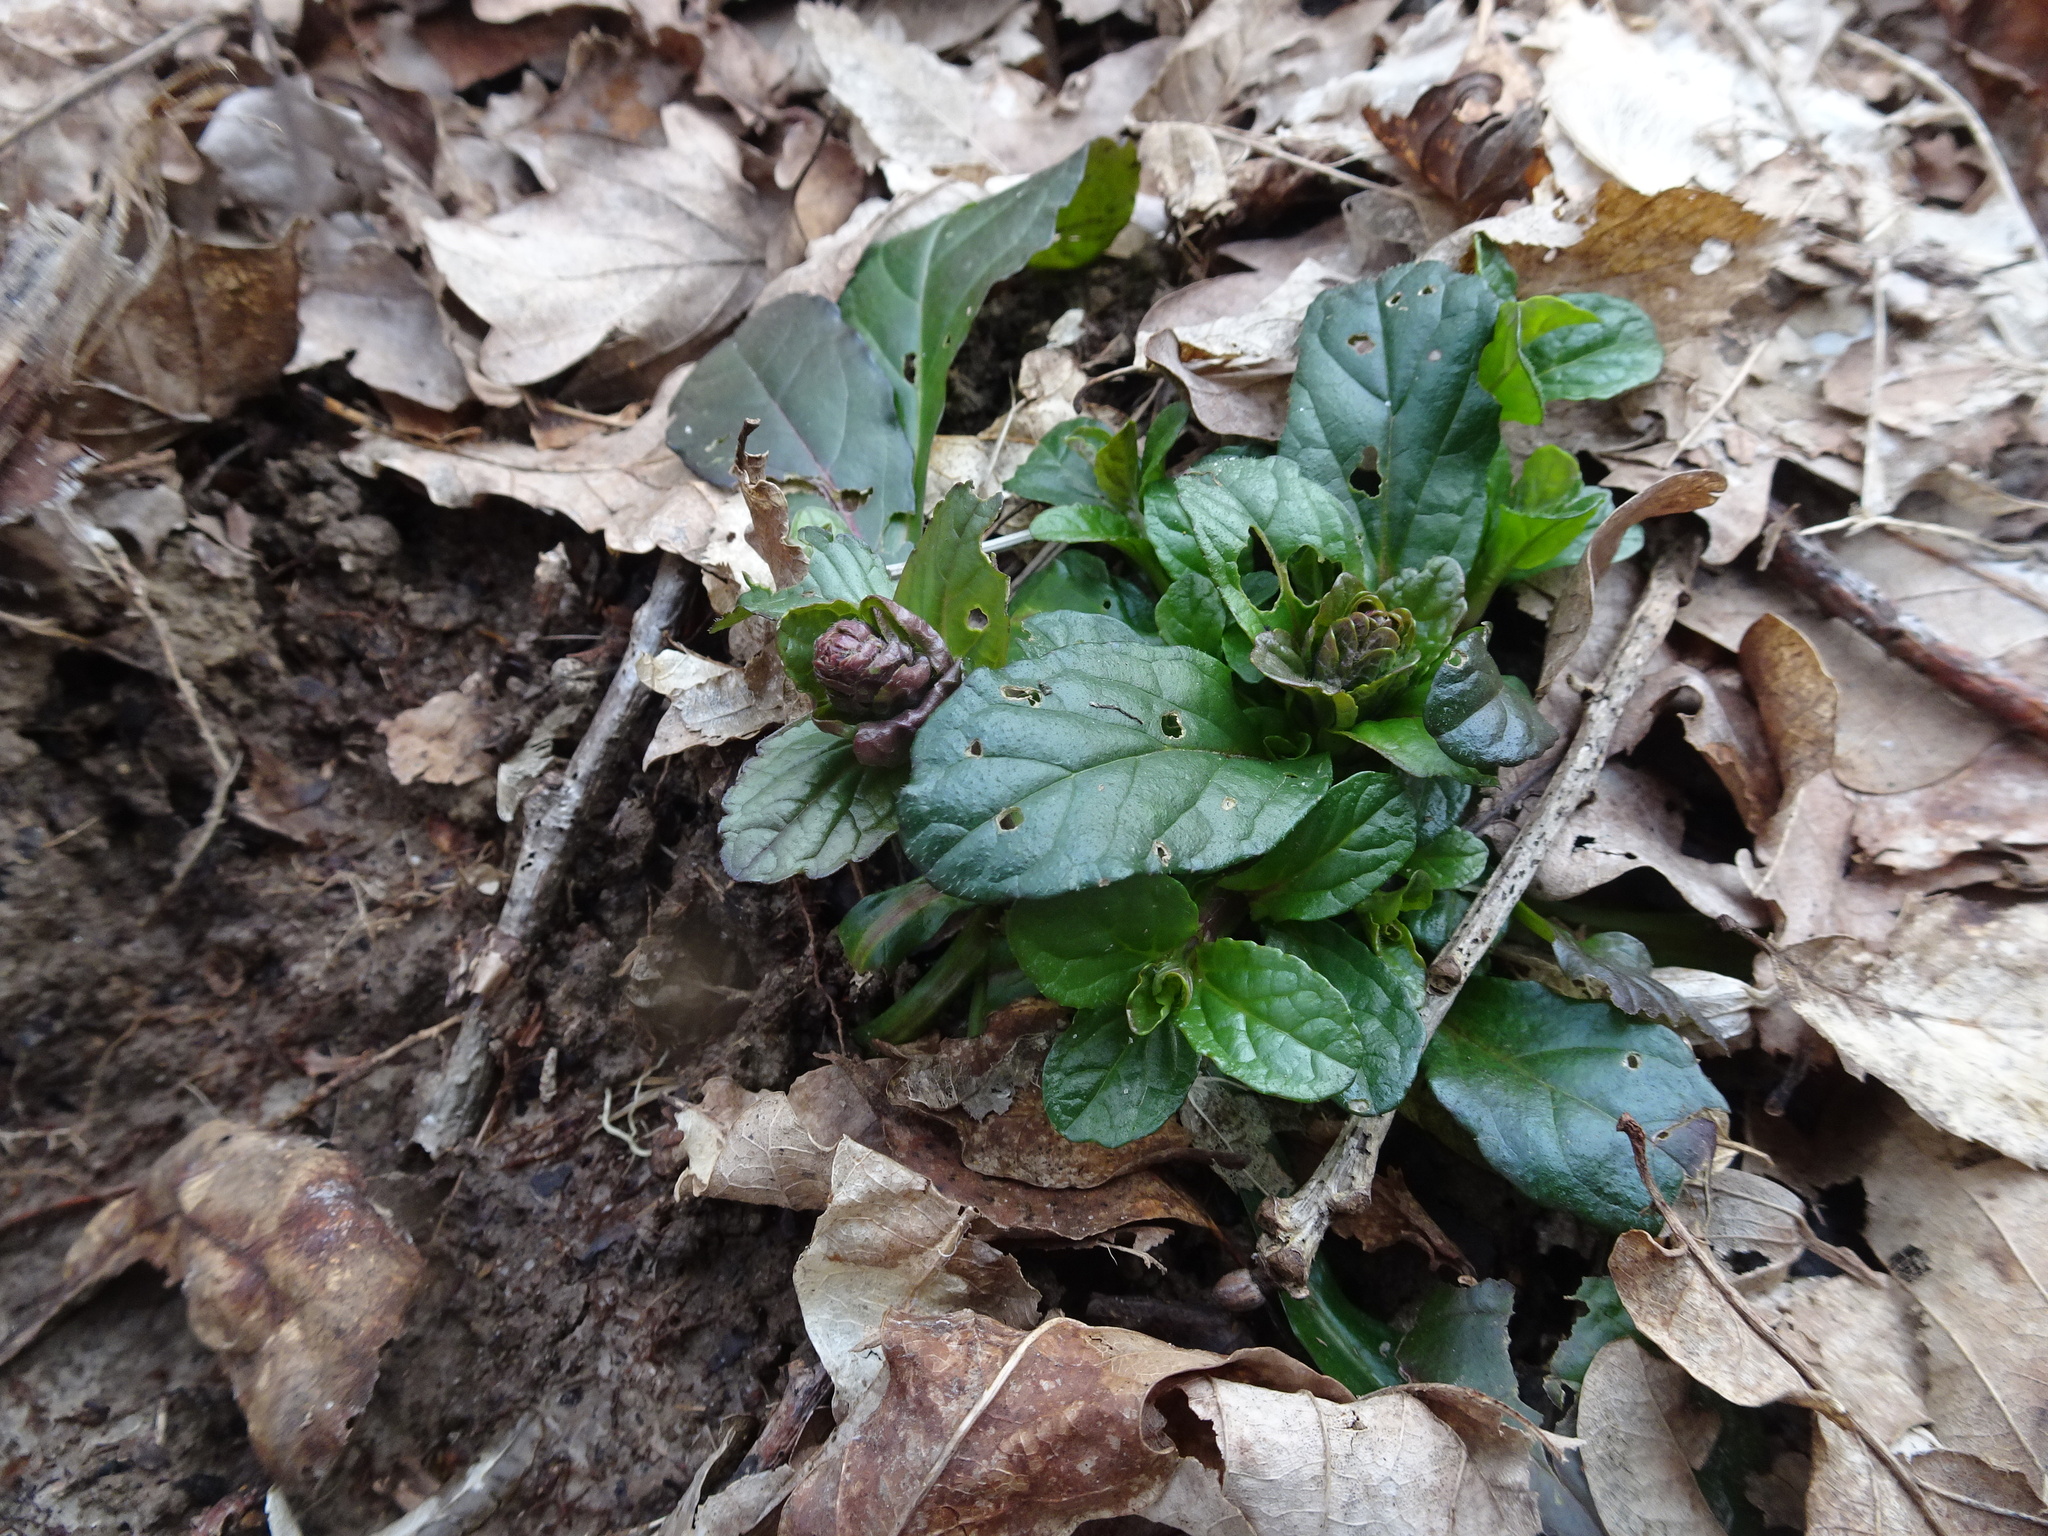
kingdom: Plantae
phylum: Tracheophyta
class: Magnoliopsida
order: Lamiales
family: Lamiaceae
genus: Ajuga
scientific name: Ajuga reptans
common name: Bugle
